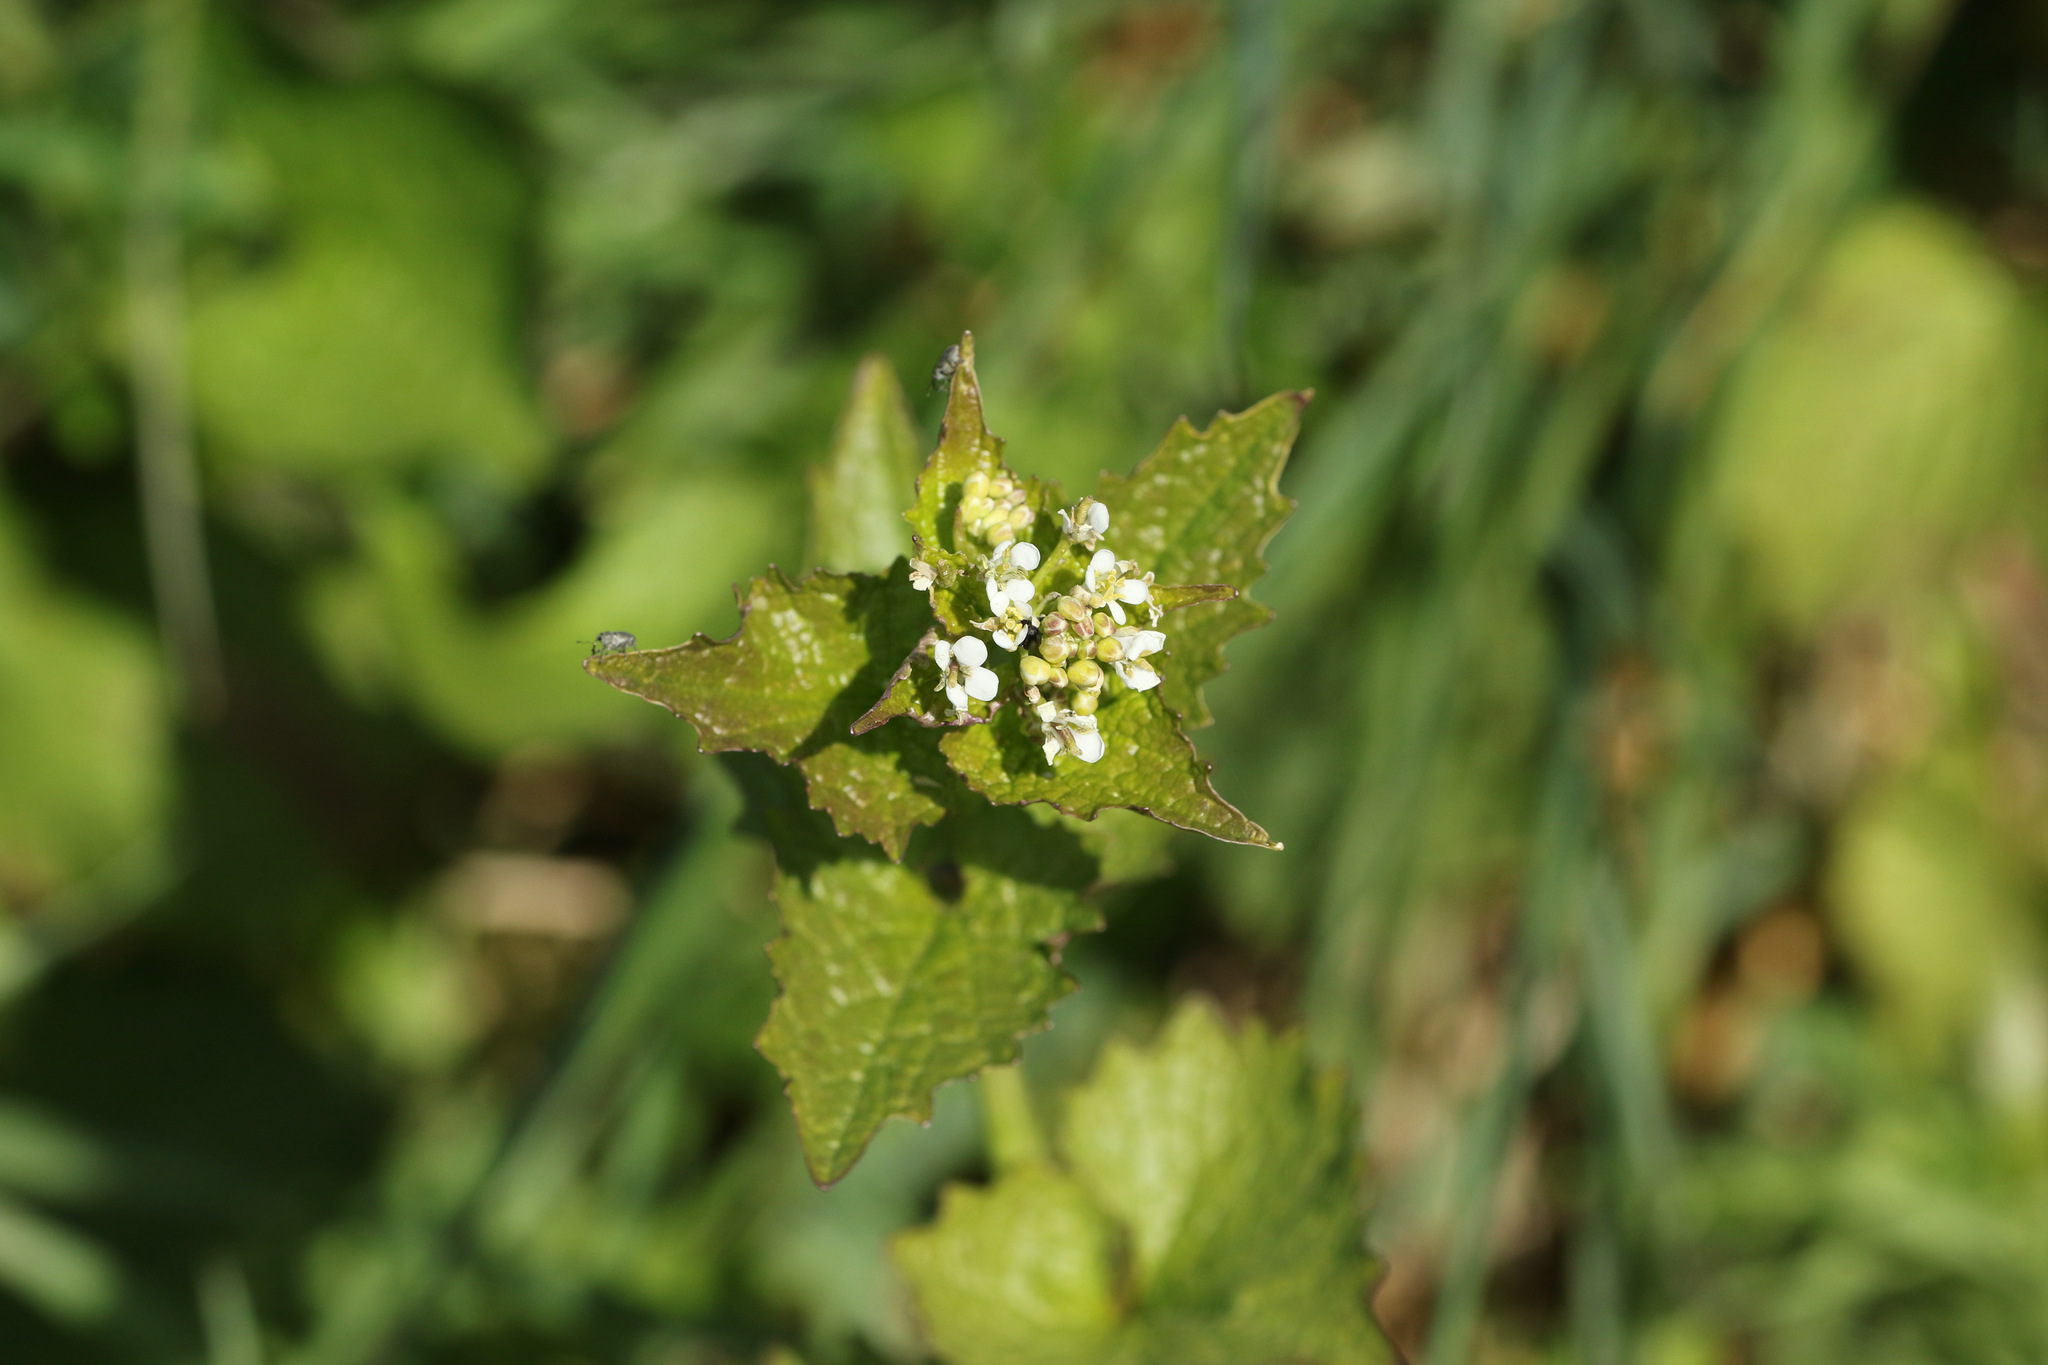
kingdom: Plantae
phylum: Tracheophyta
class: Magnoliopsida
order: Brassicales
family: Brassicaceae
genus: Alliaria
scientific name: Alliaria petiolata
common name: Garlic mustard
